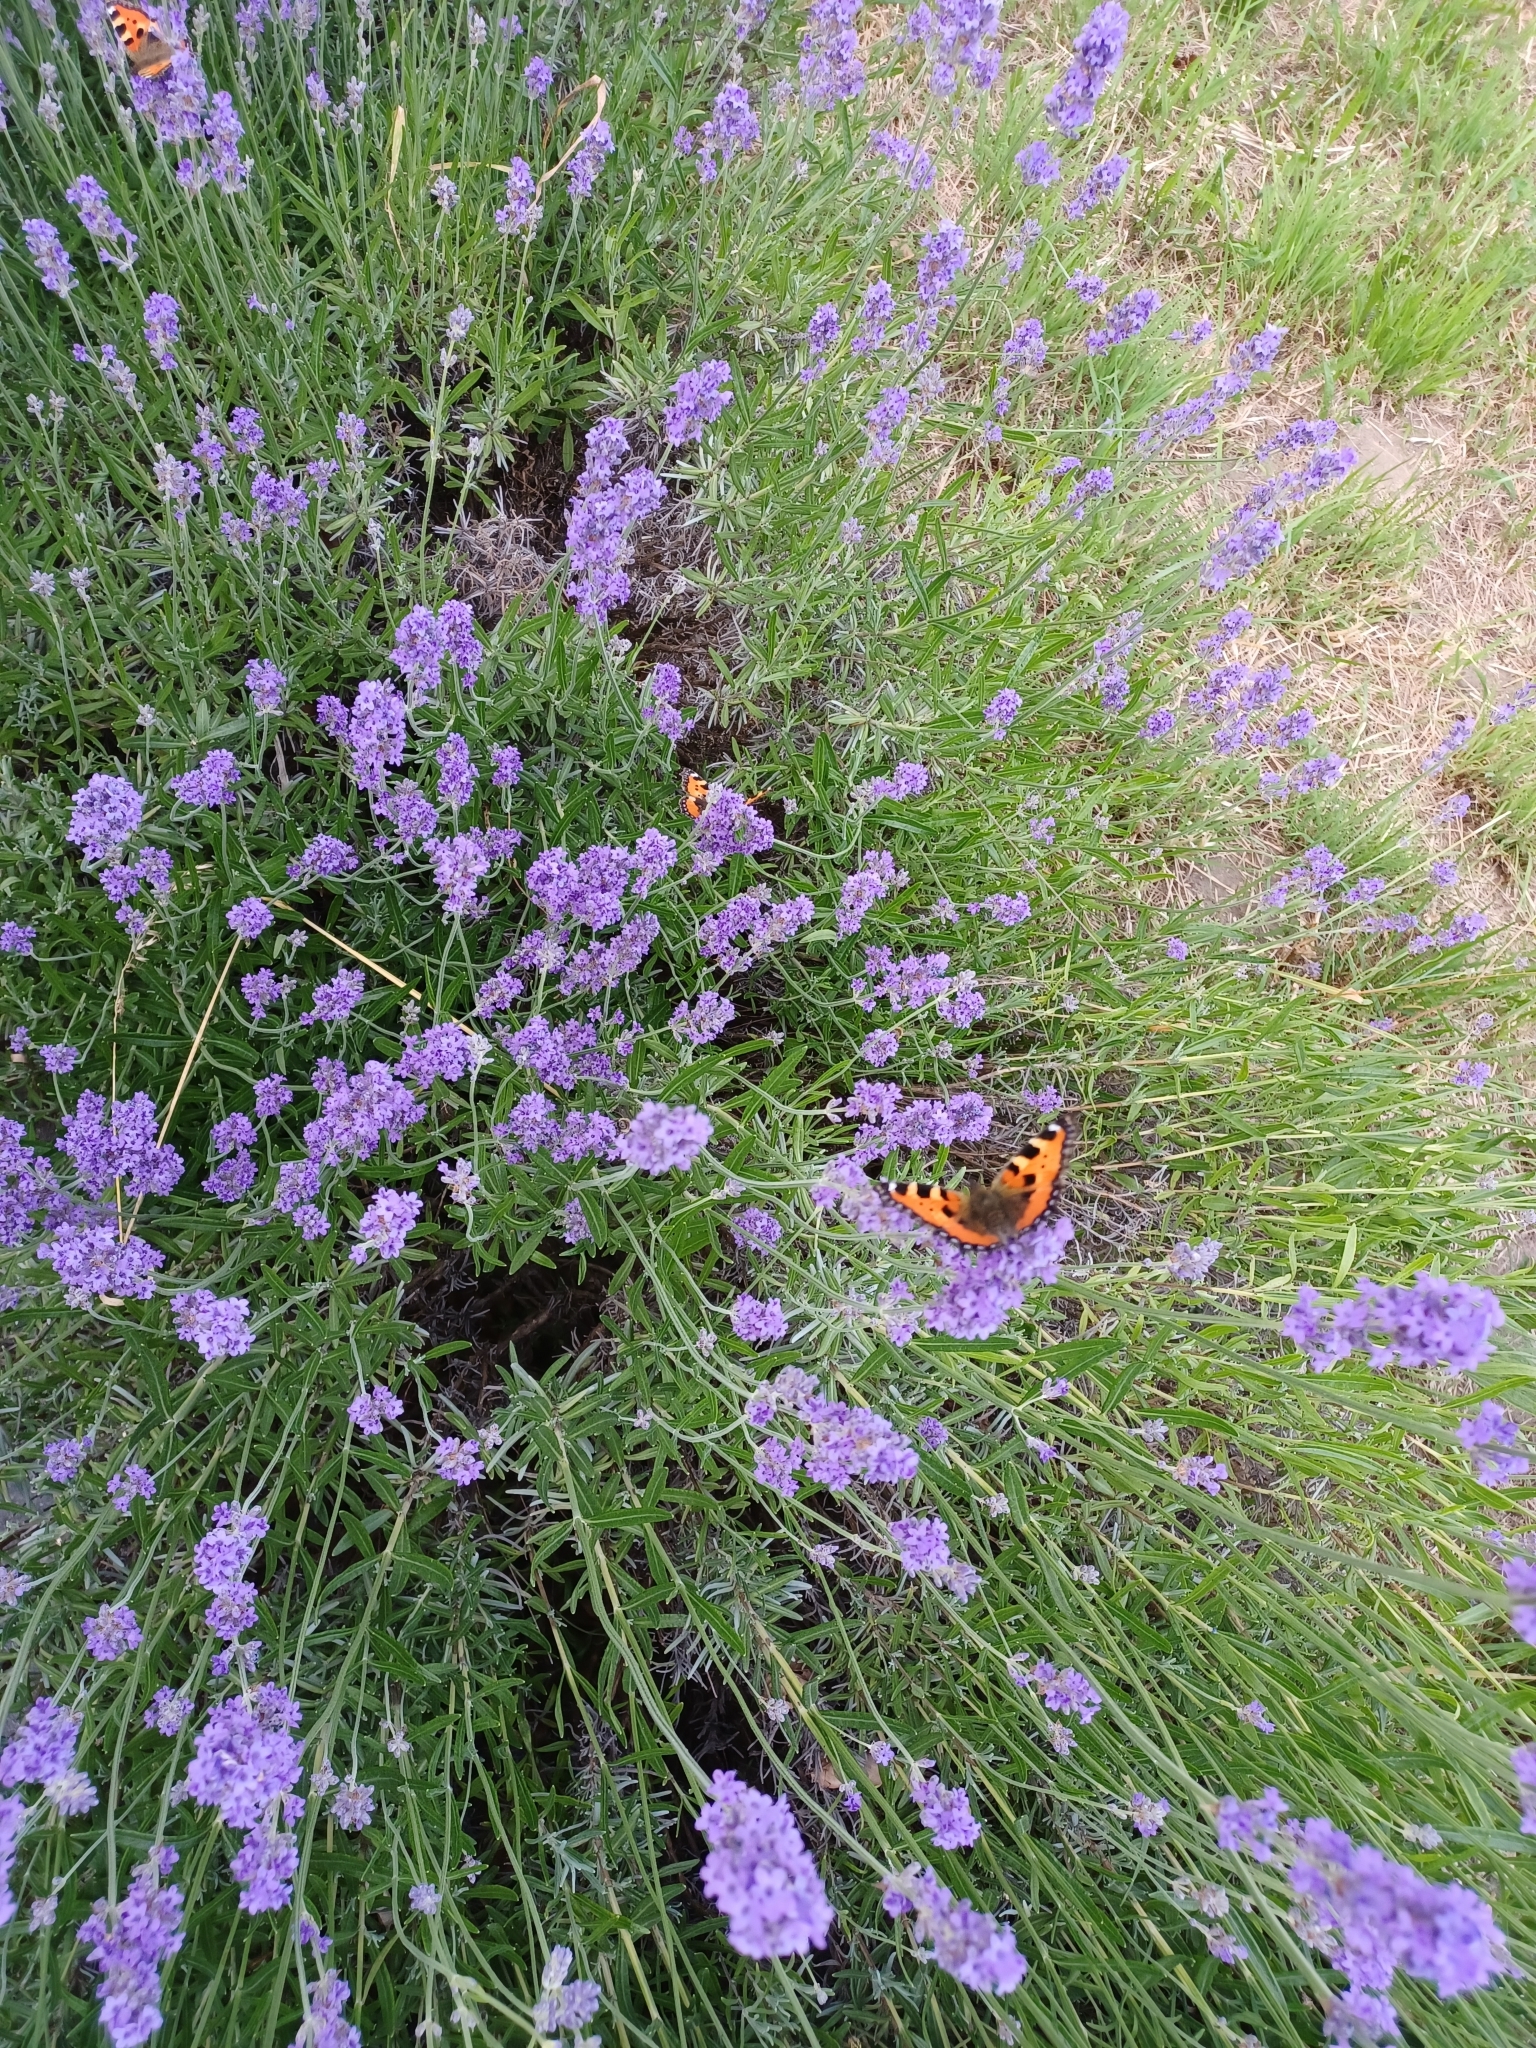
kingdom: Animalia
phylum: Arthropoda
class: Insecta
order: Lepidoptera
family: Nymphalidae
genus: Aglais
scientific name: Aglais urticae
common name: Small tortoiseshell
